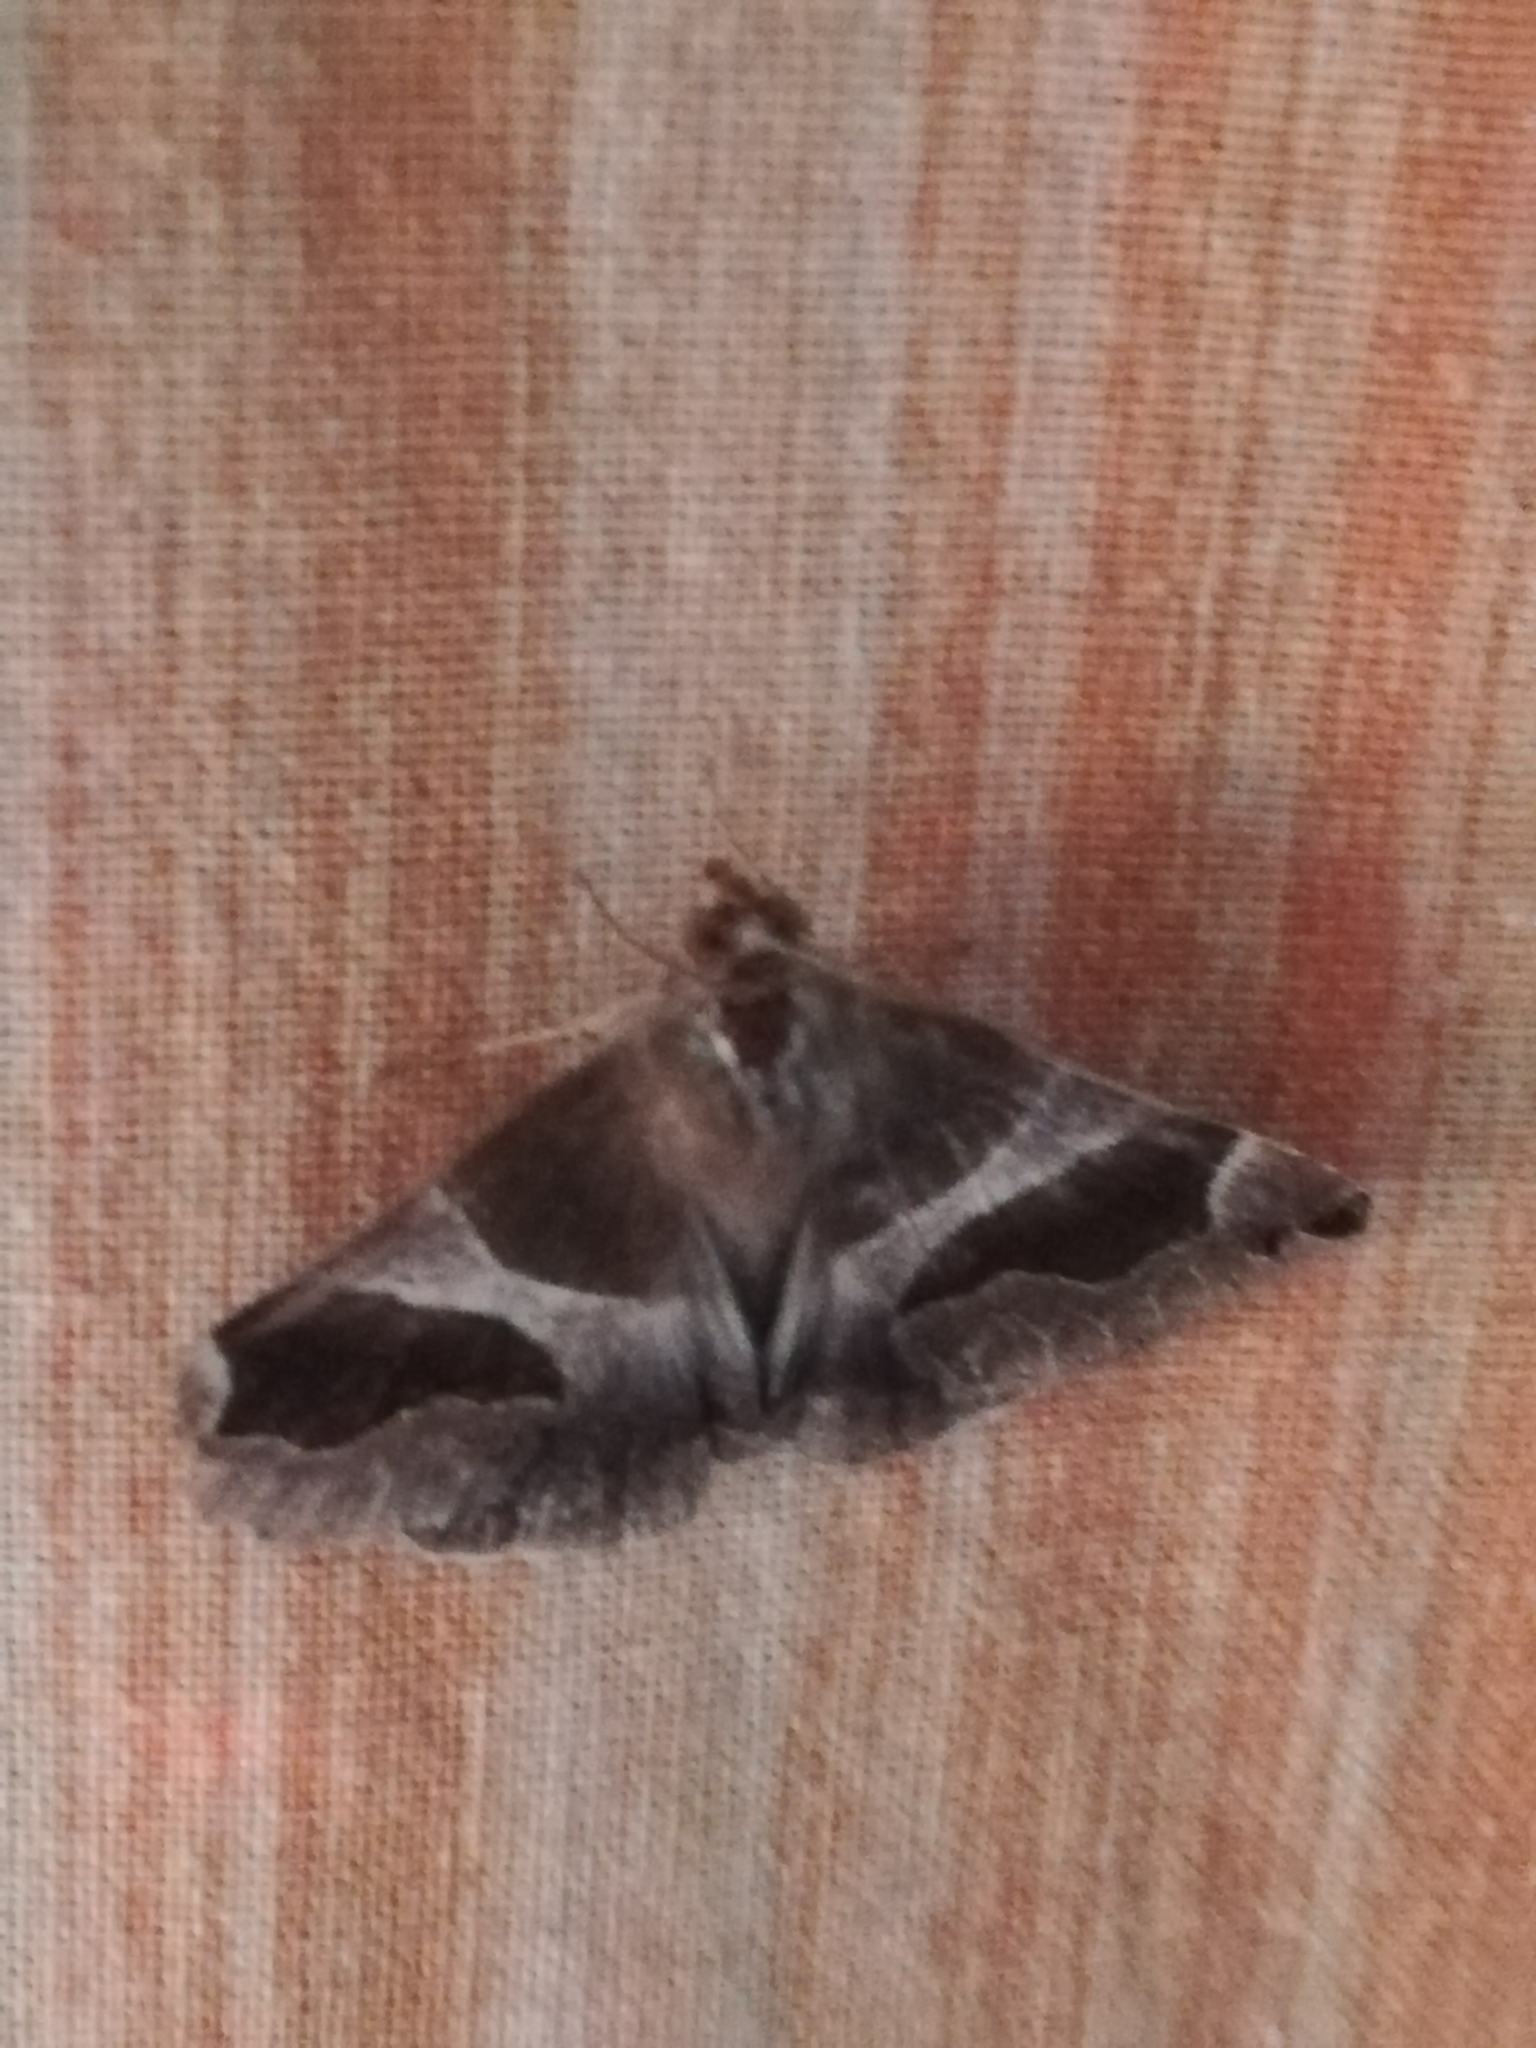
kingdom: Animalia
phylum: Arthropoda
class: Insecta
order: Lepidoptera
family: Erebidae
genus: Dysgonia
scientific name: Dysgonia algira
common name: Passenger
